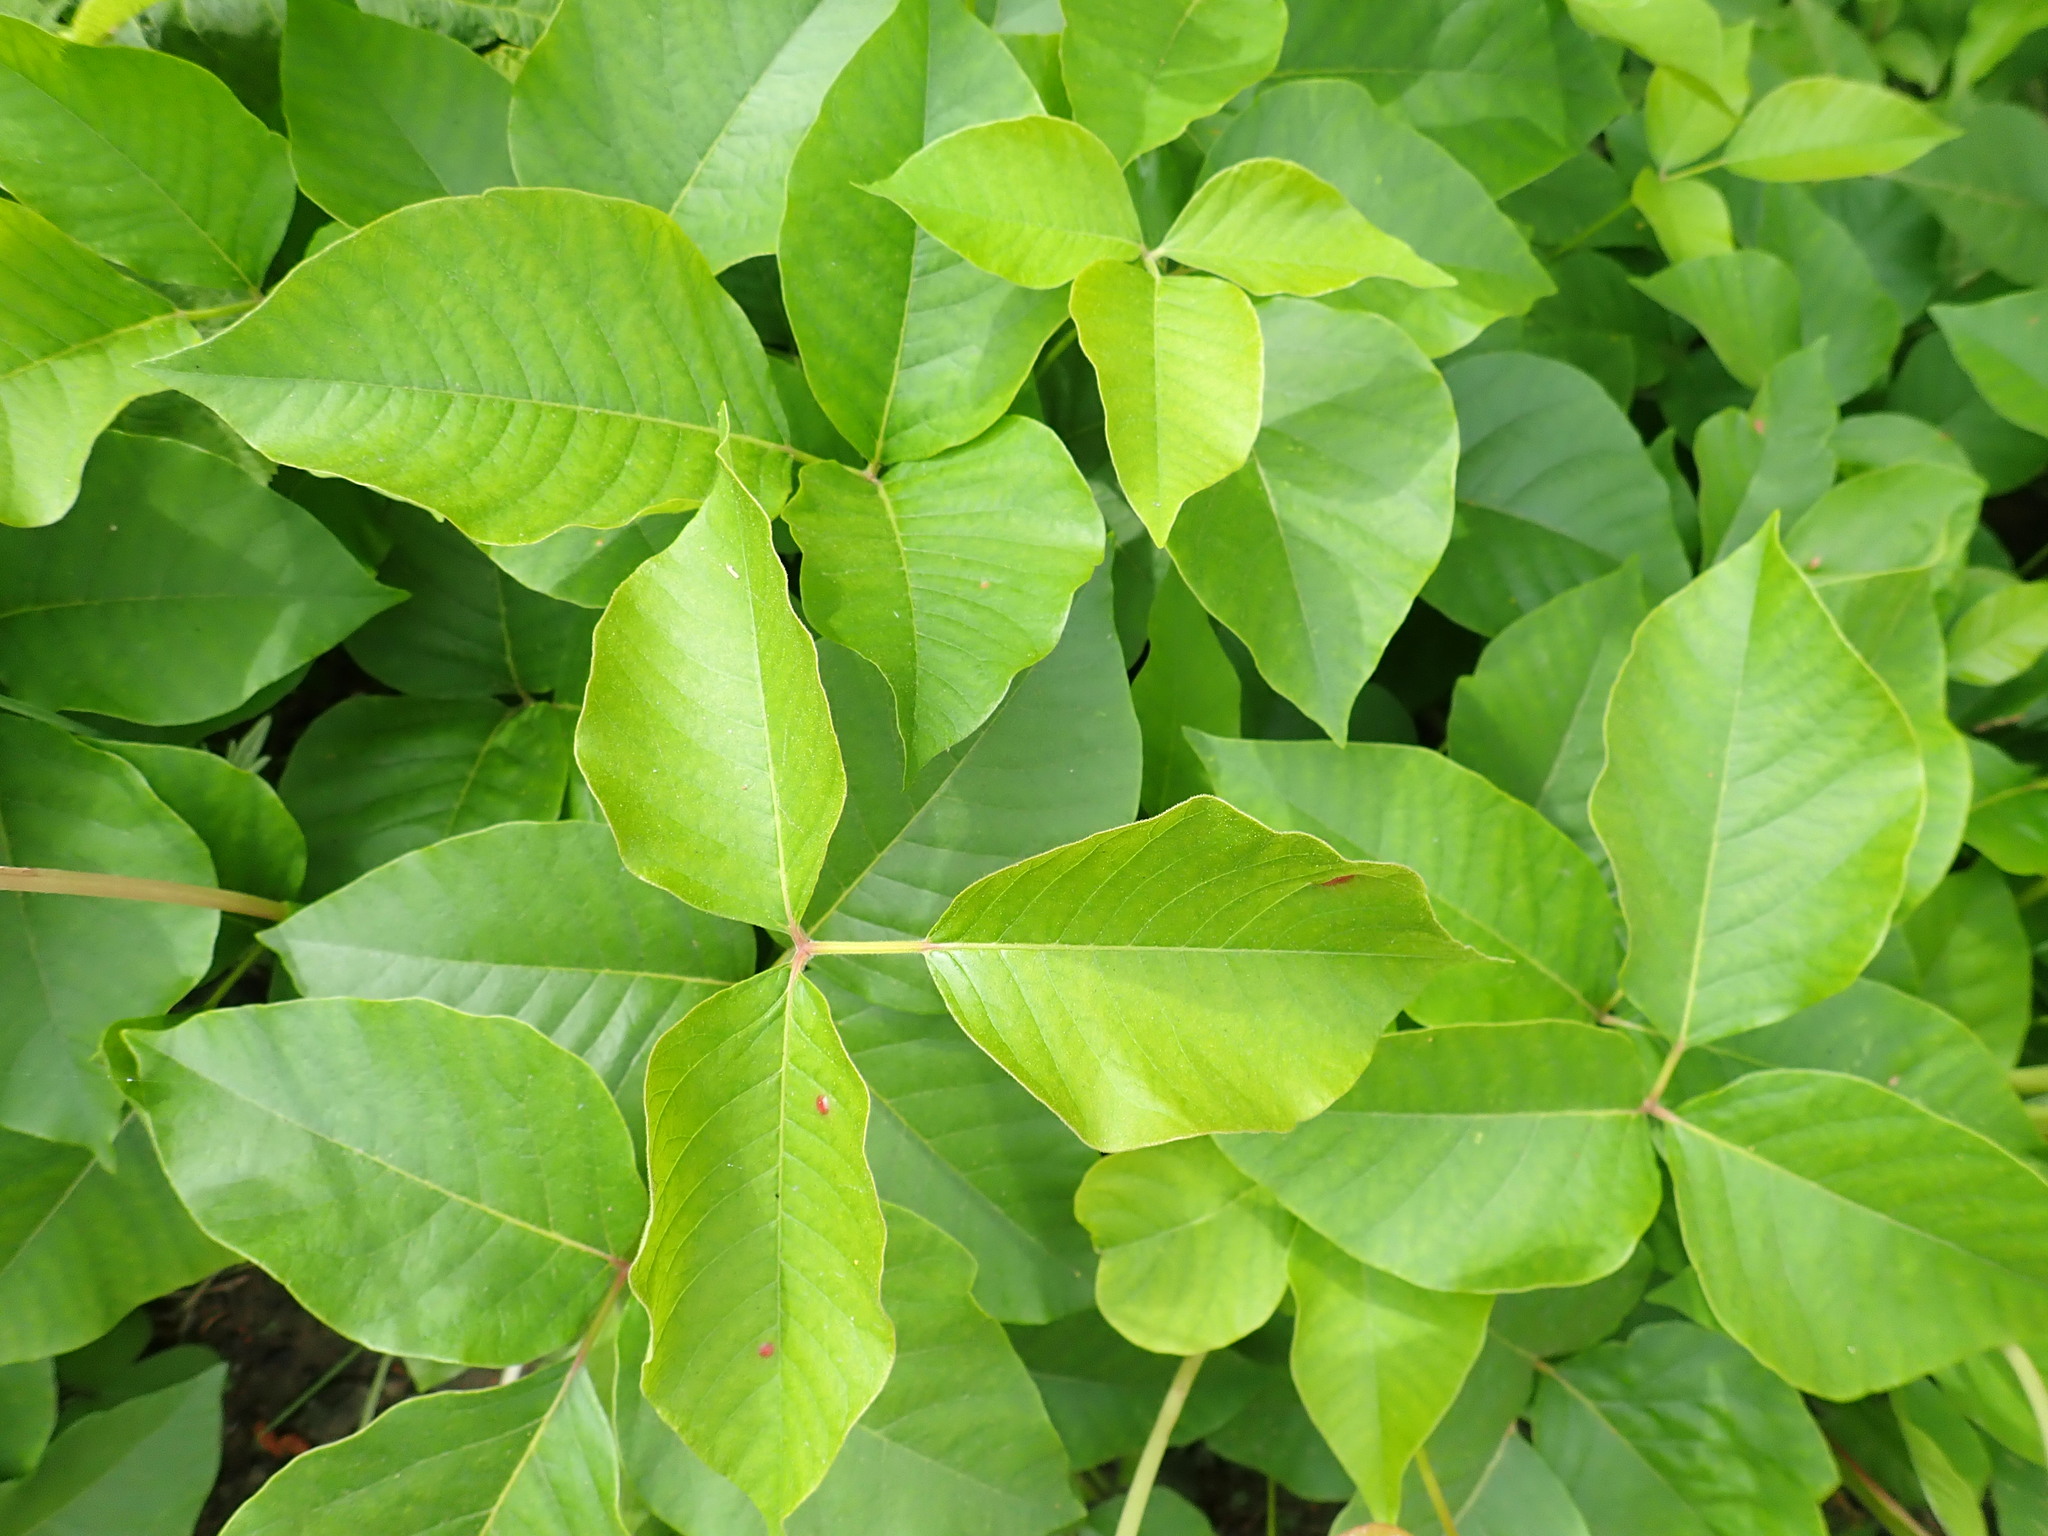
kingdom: Plantae
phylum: Tracheophyta
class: Magnoliopsida
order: Sapindales
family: Anacardiaceae
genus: Toxicodendron
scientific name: Toxicodendron rydbergii
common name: Rydberg's poison-ivy
